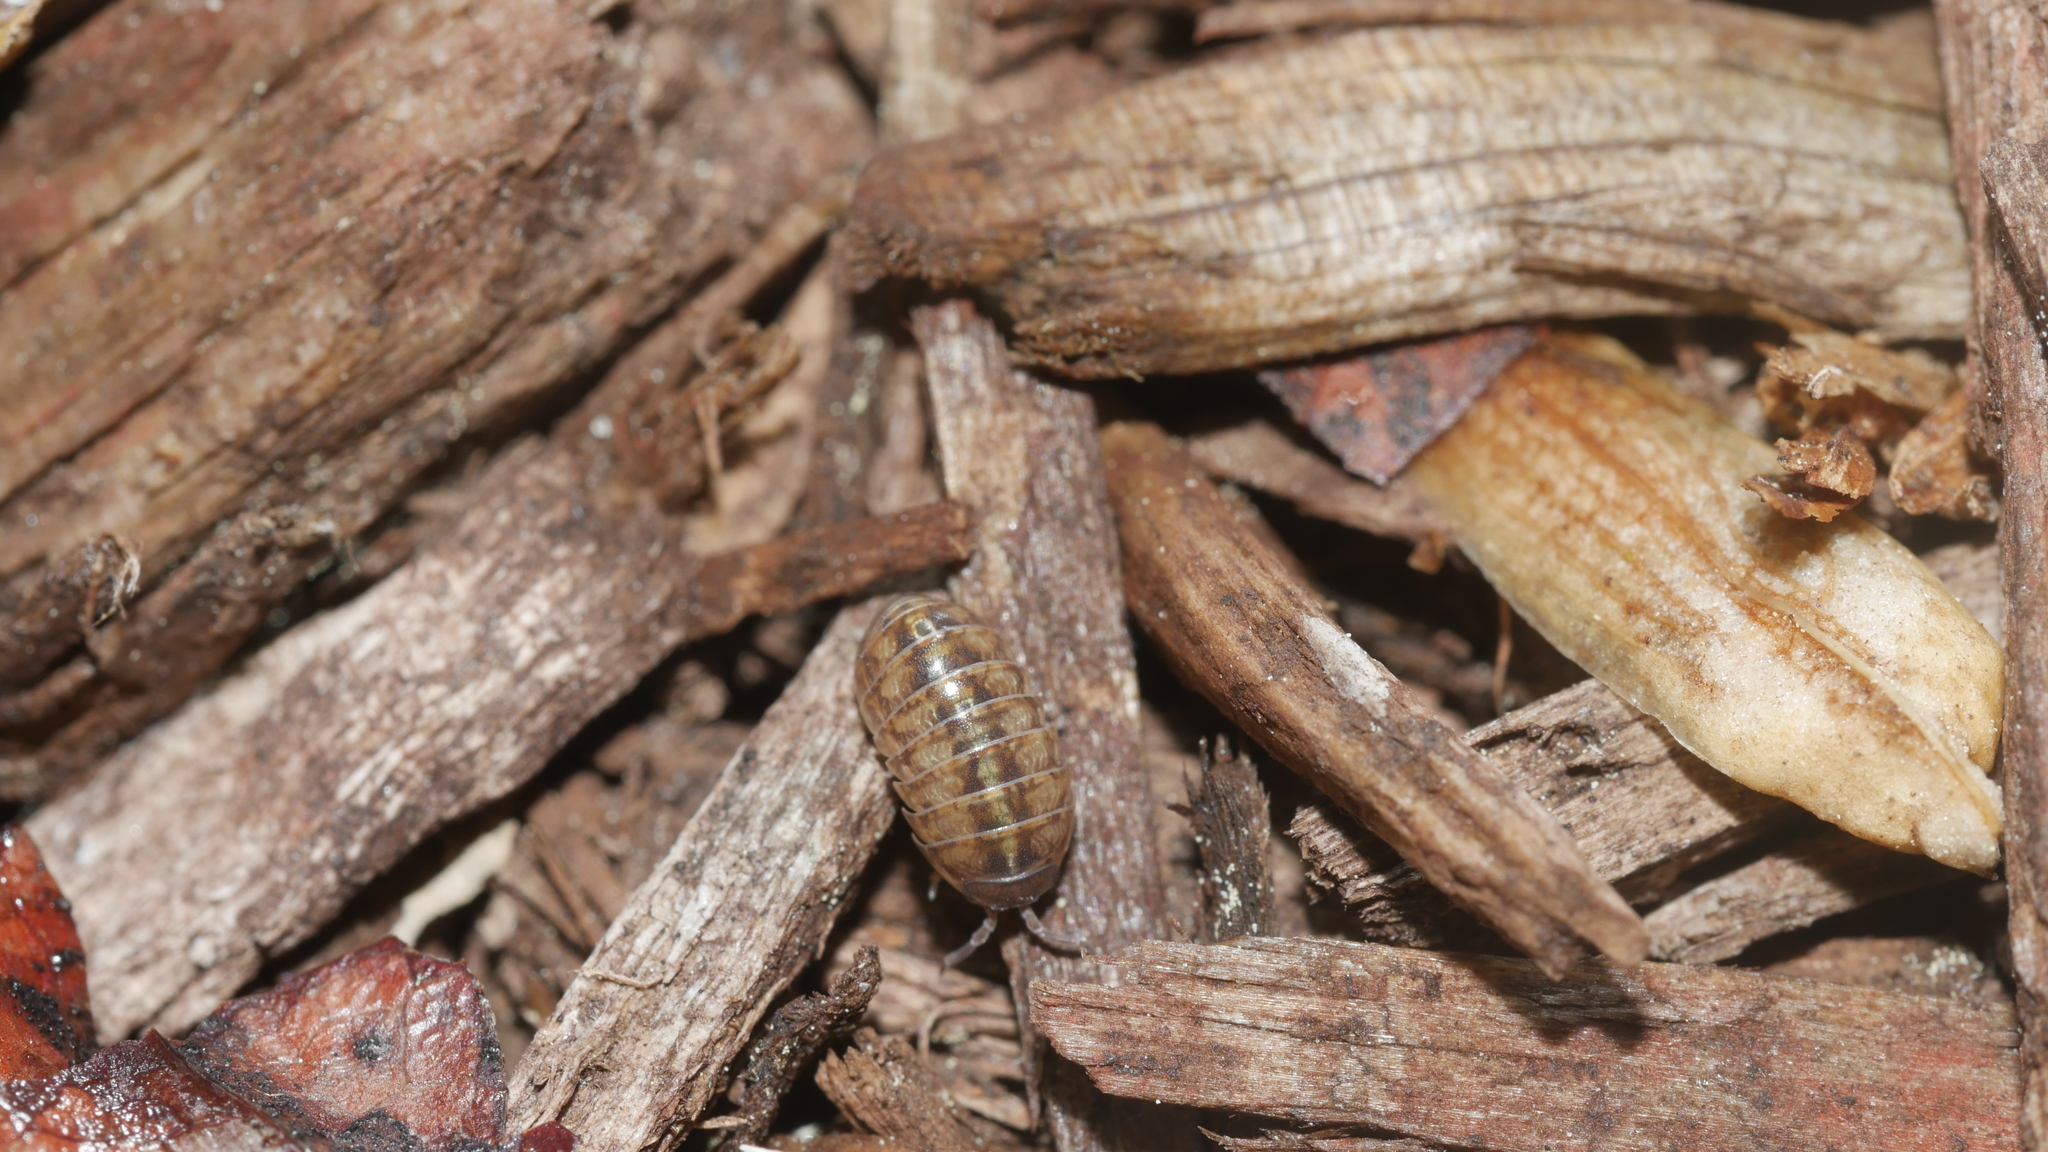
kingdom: Animalia
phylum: Arthropoda
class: Malacostraca
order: Isopoda
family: Armadillidiidae
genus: Armadillidium
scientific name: Armadillidium vulgare
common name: Common pill woodlouse
